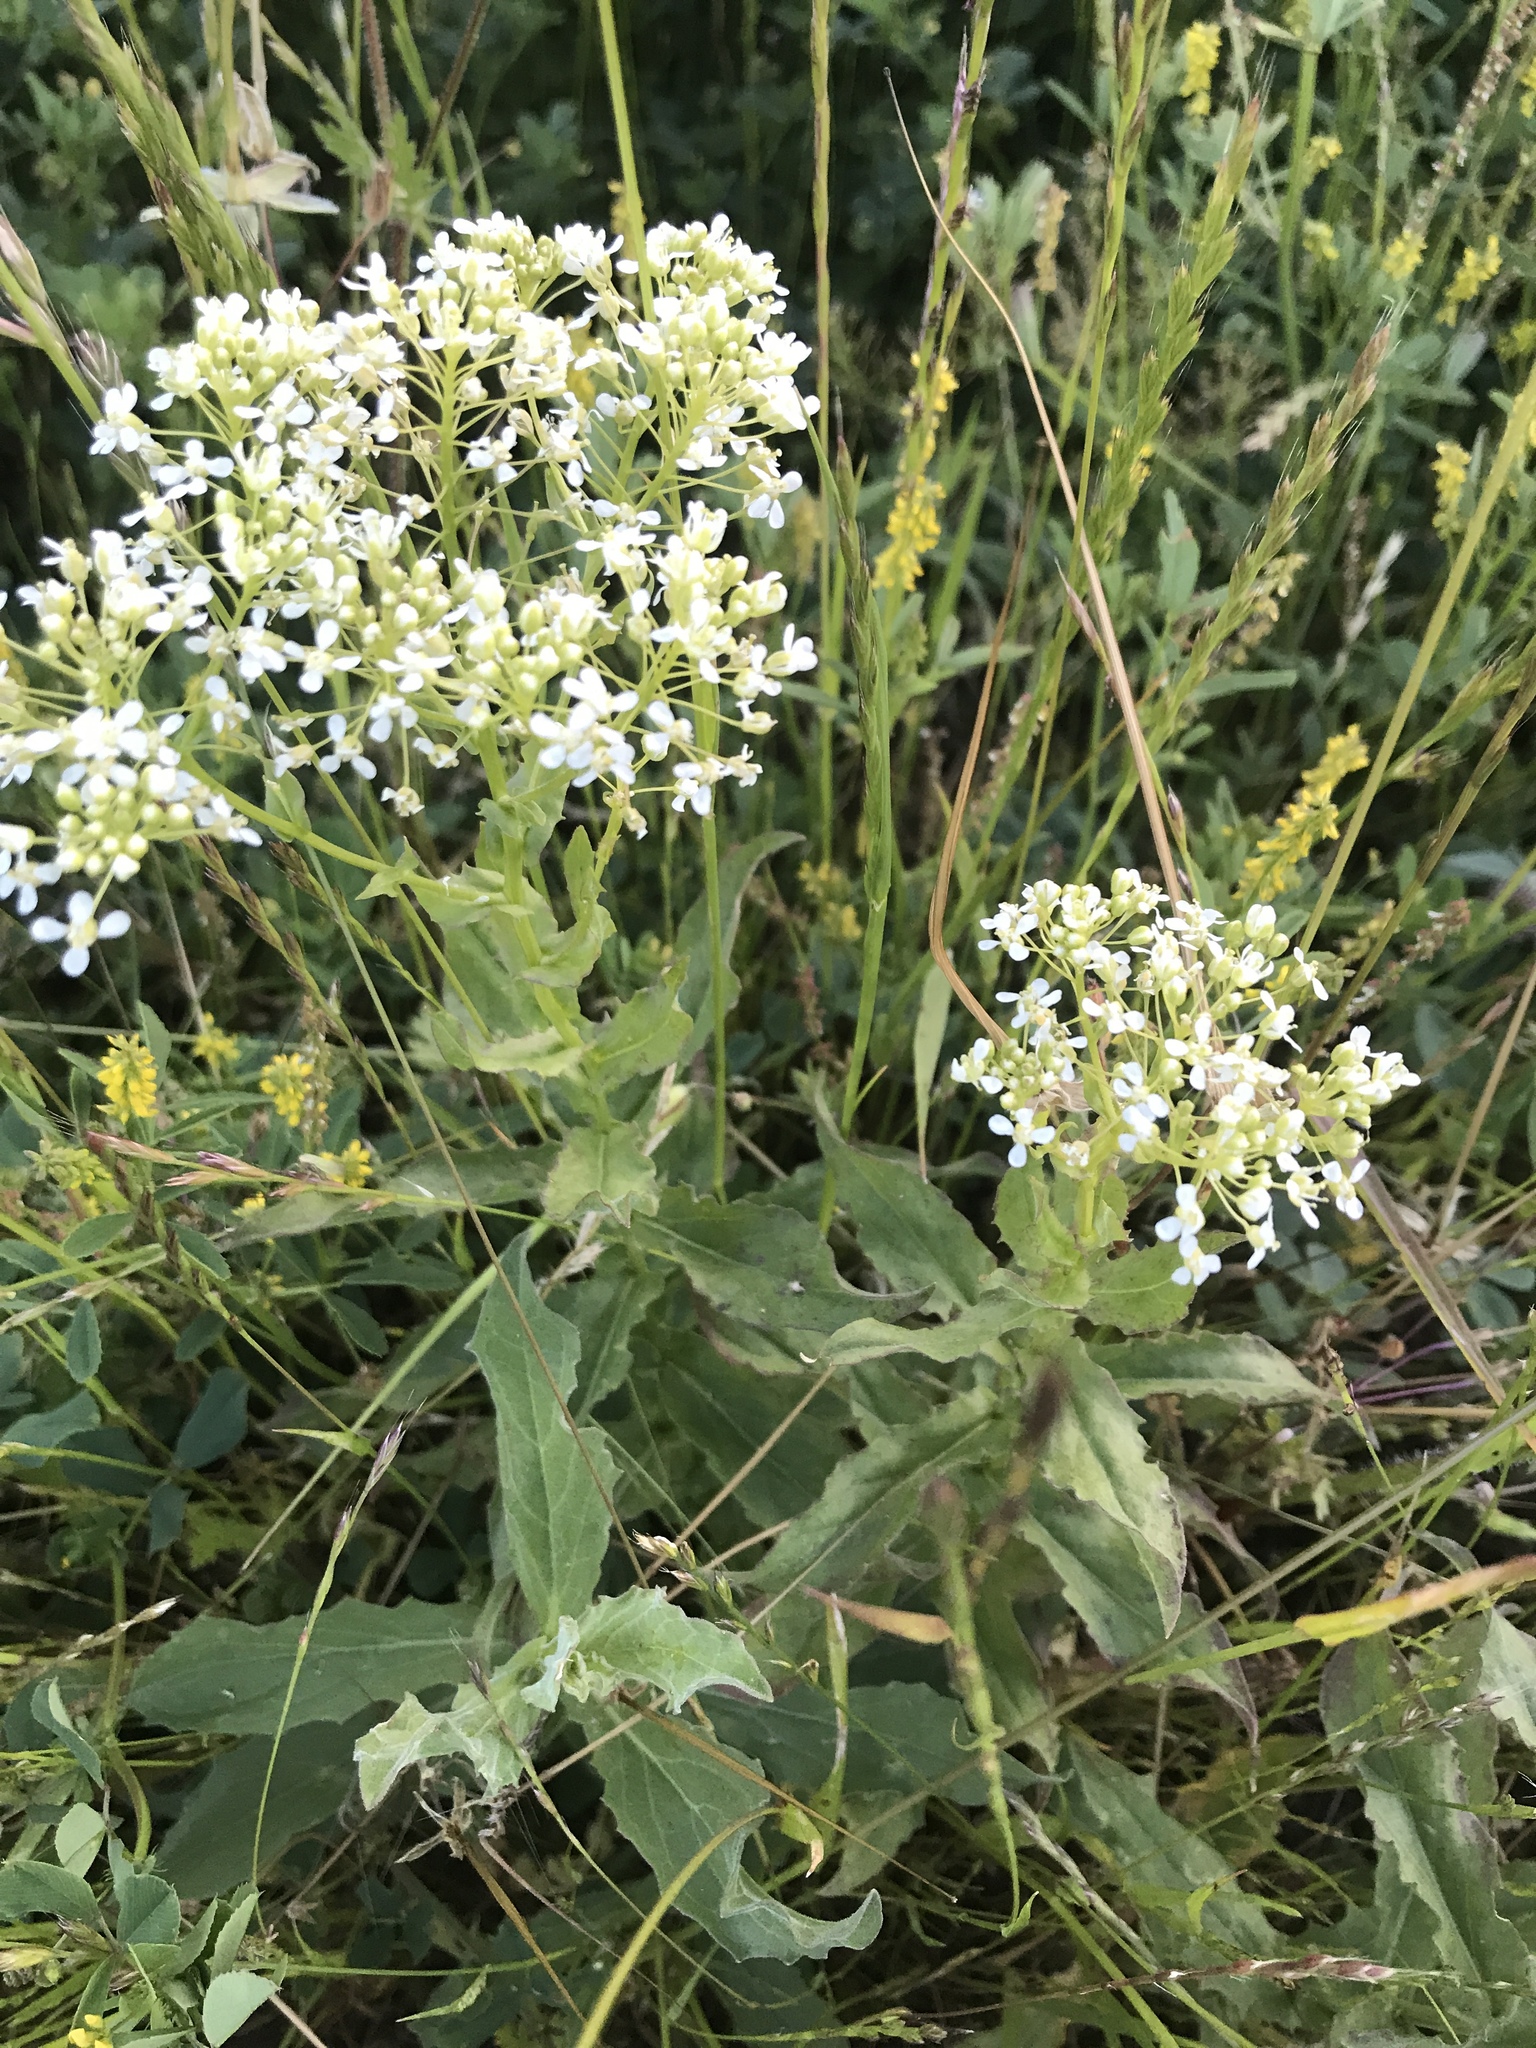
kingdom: Plantae
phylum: Tracheophyta
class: Magnoliopsida
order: Brassicales
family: Brassicaceae
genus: Lepidium
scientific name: Lepidium latifolium
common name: Dittander
